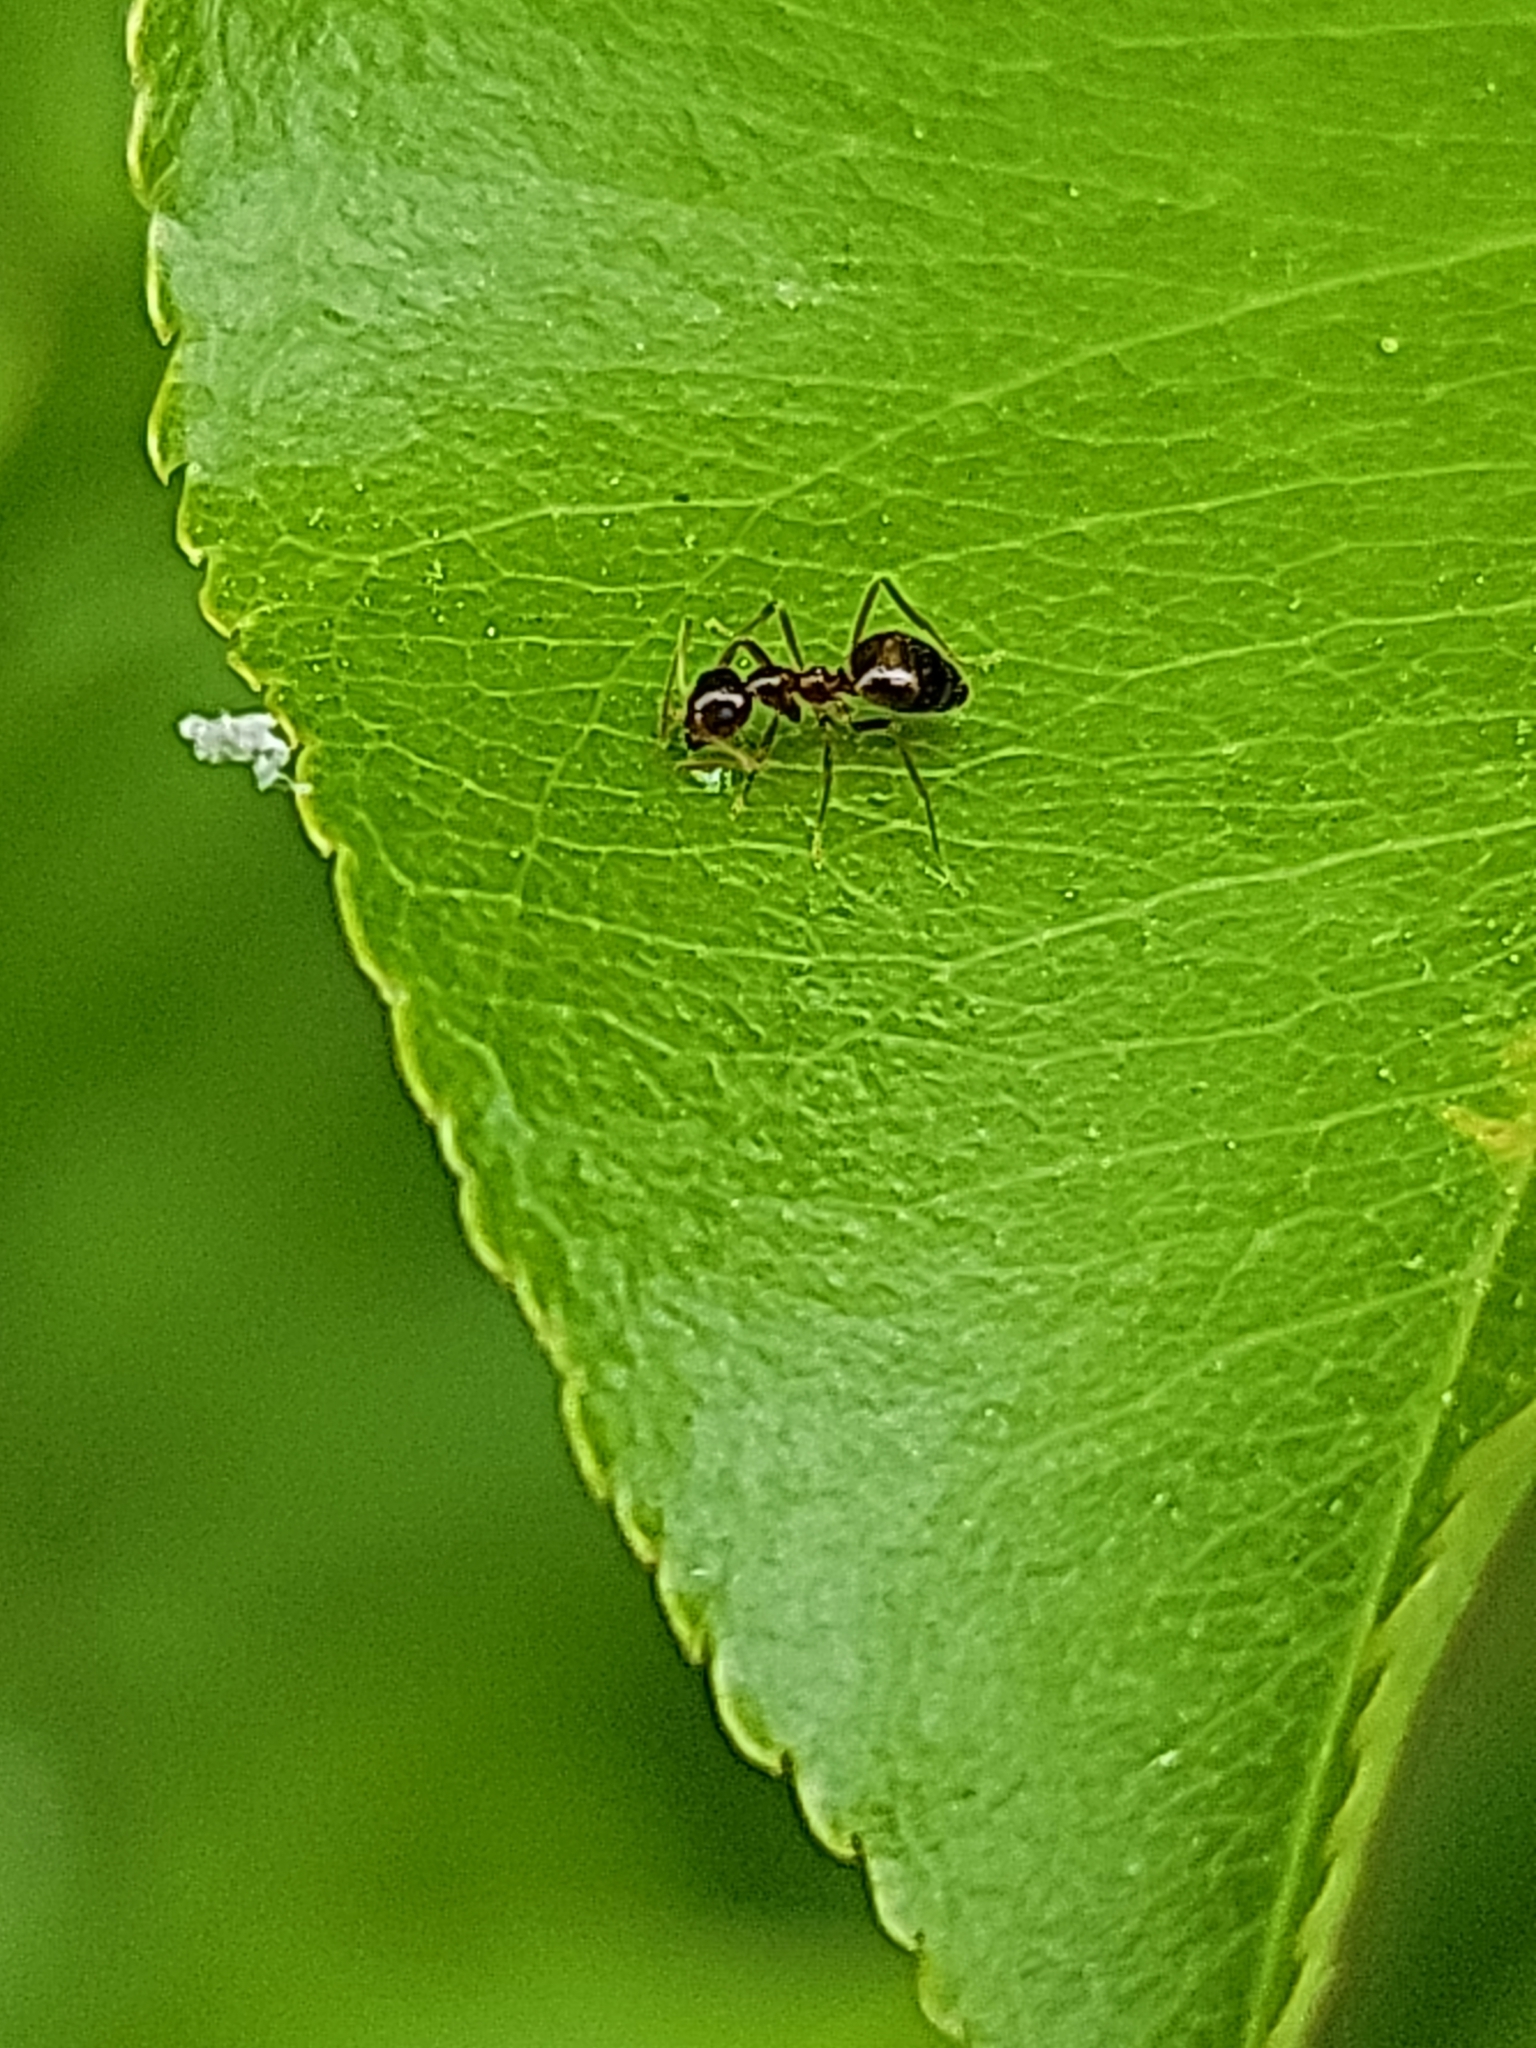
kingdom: Animalia
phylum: Arthropoda
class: Insecta
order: Hymenoptera
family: Formicidae
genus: Prenolepis
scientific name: Prenolepis imparis
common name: Small honey ant
